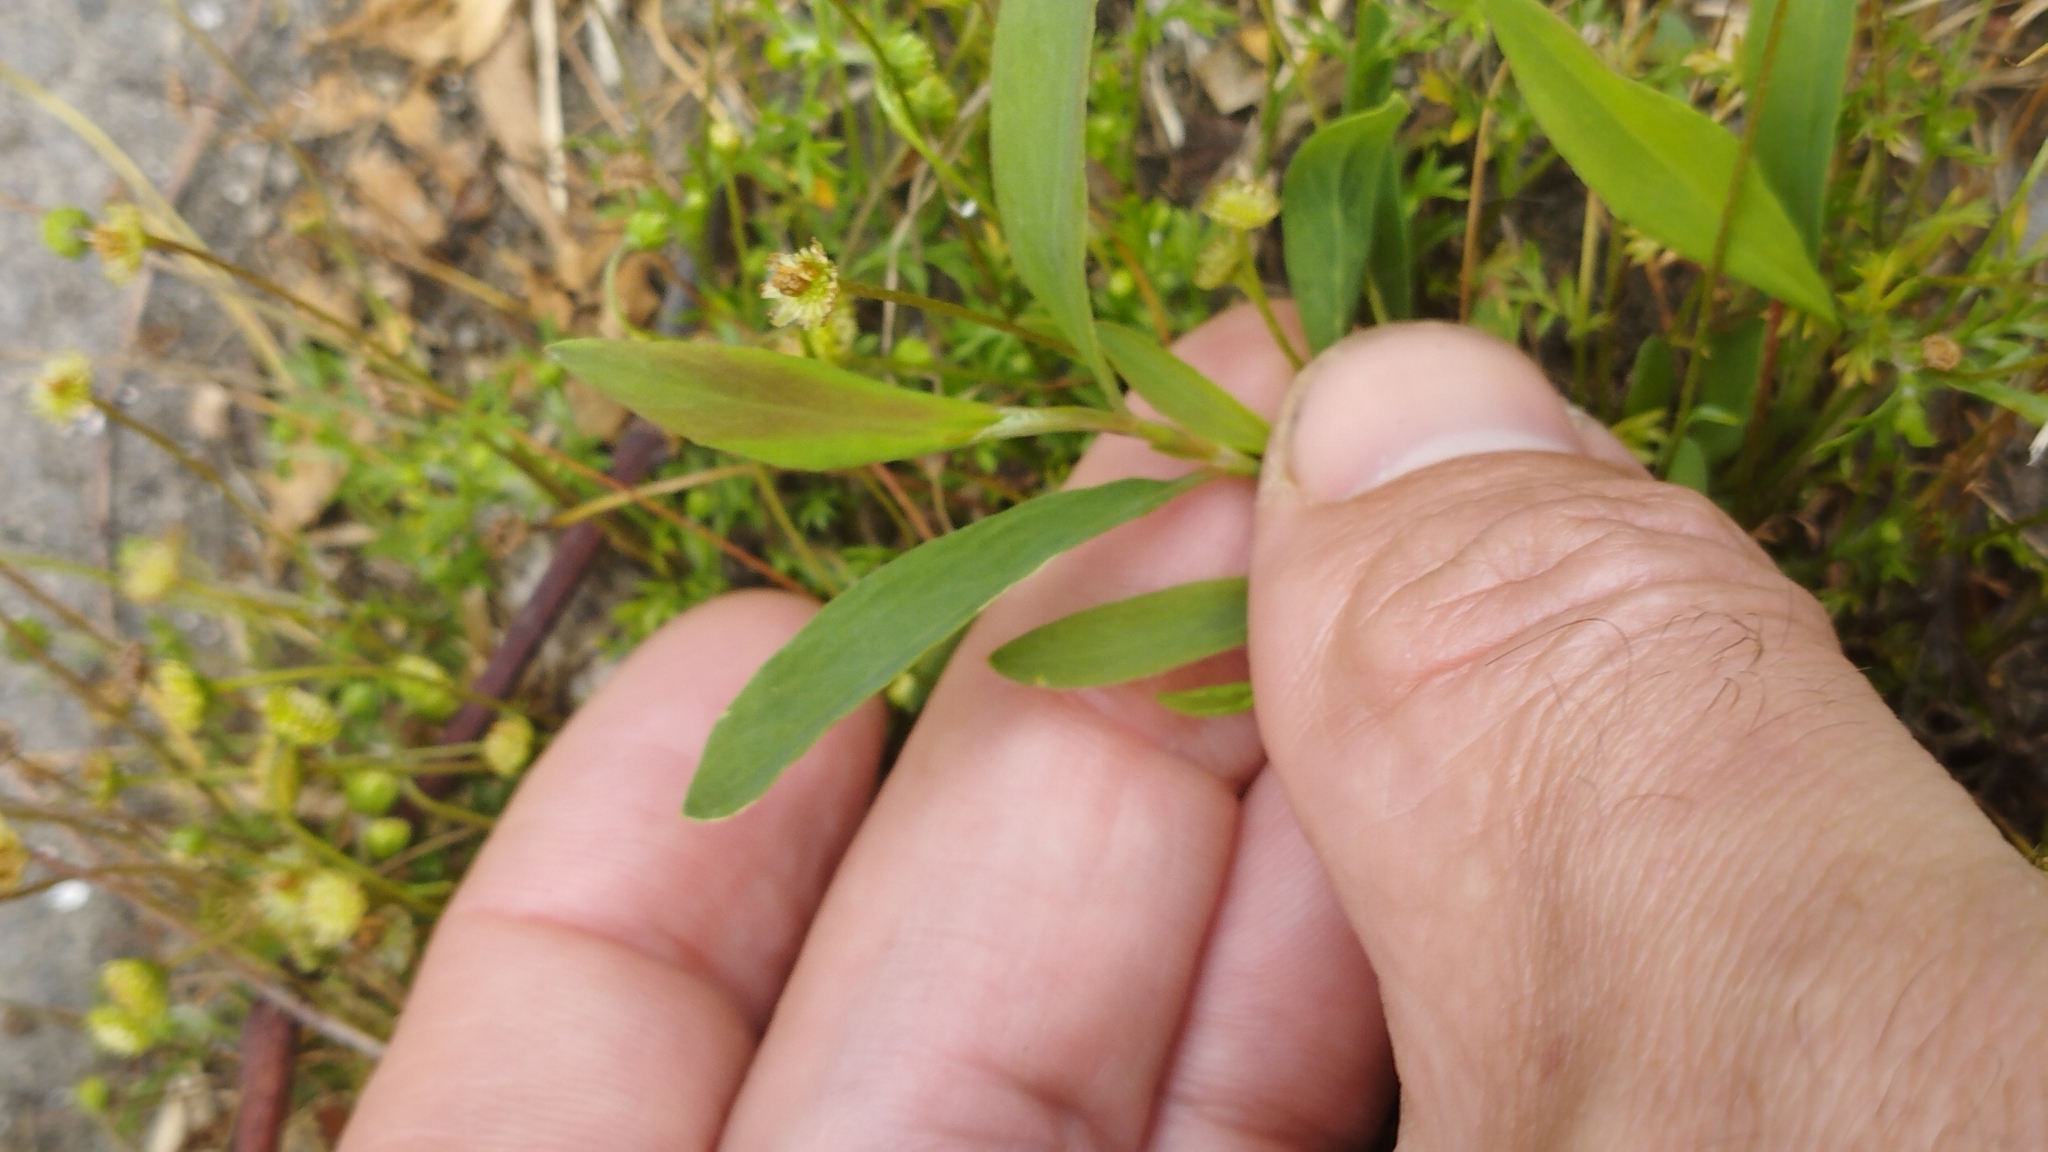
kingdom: Plantae
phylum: Tracheophyta
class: Magnoliopsida
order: Caryophyllales
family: Polygonaceae
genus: Polygonum
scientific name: Polygonum aviculare
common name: Prostrate knotweed
